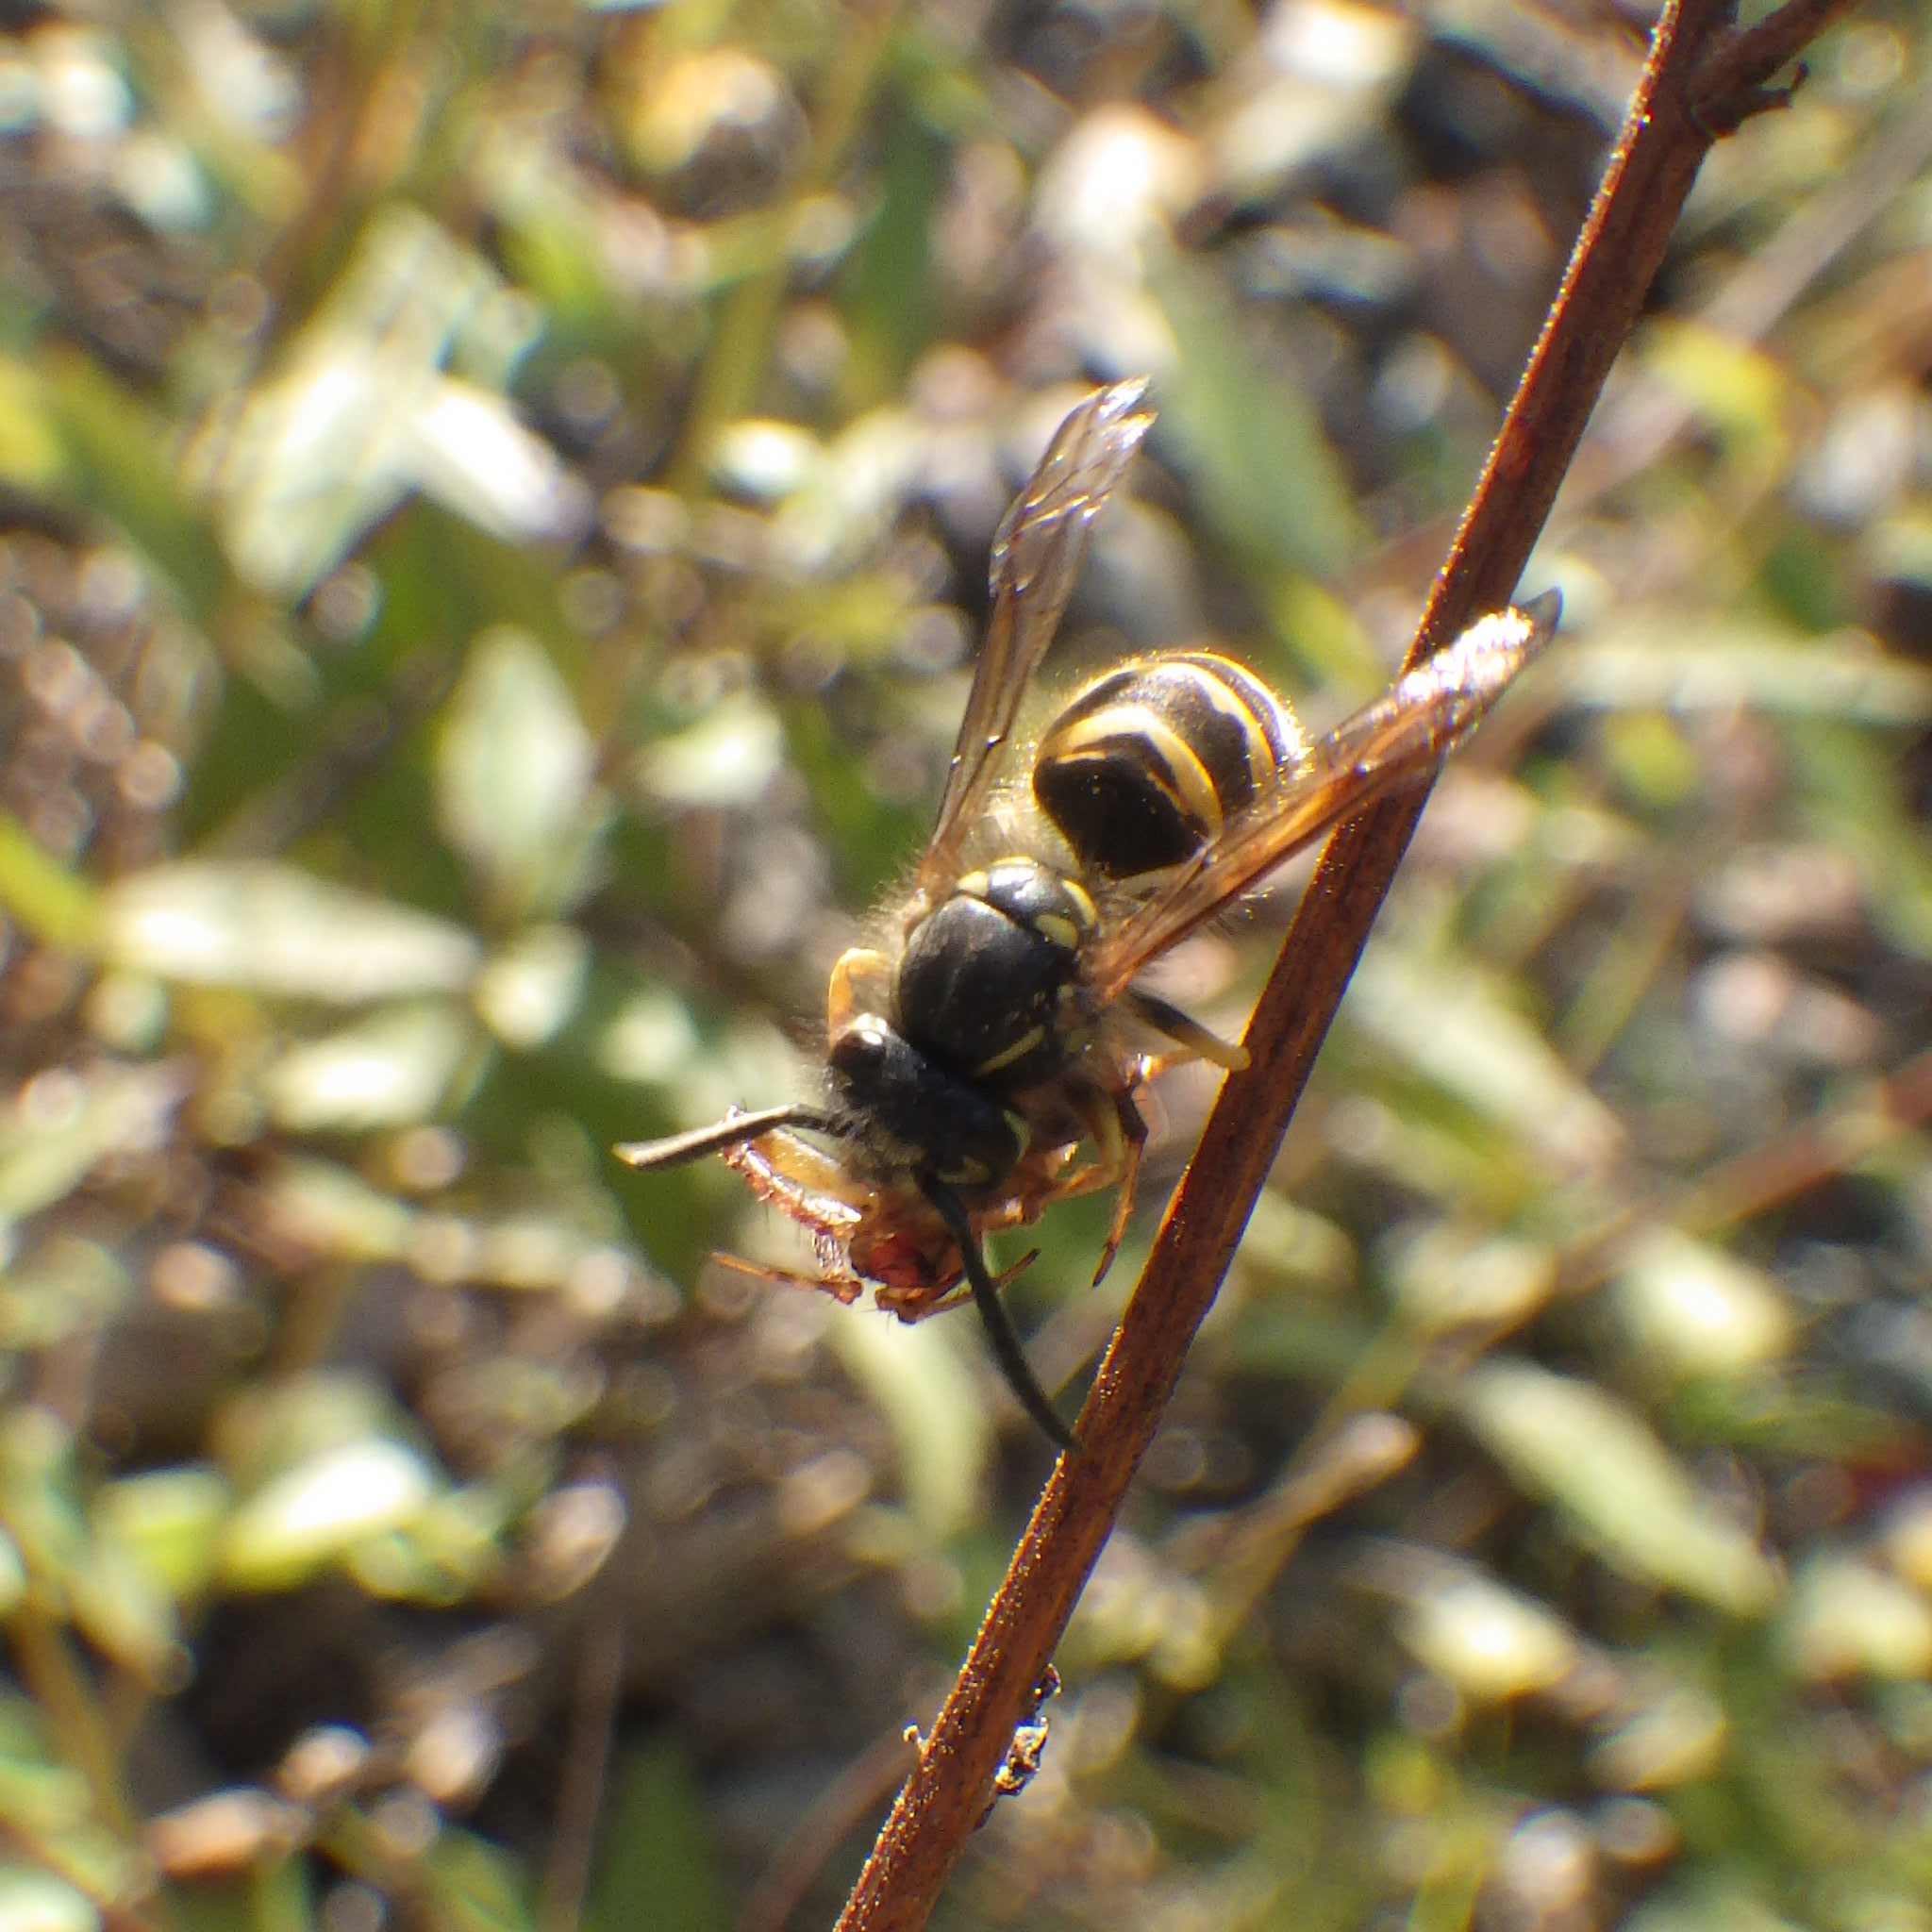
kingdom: Animalia
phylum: Arthropoda
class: Insecta
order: Hymenoptera
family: Vespidae
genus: Vespula
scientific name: Vespula alascensis
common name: Alaska yellowjacket
